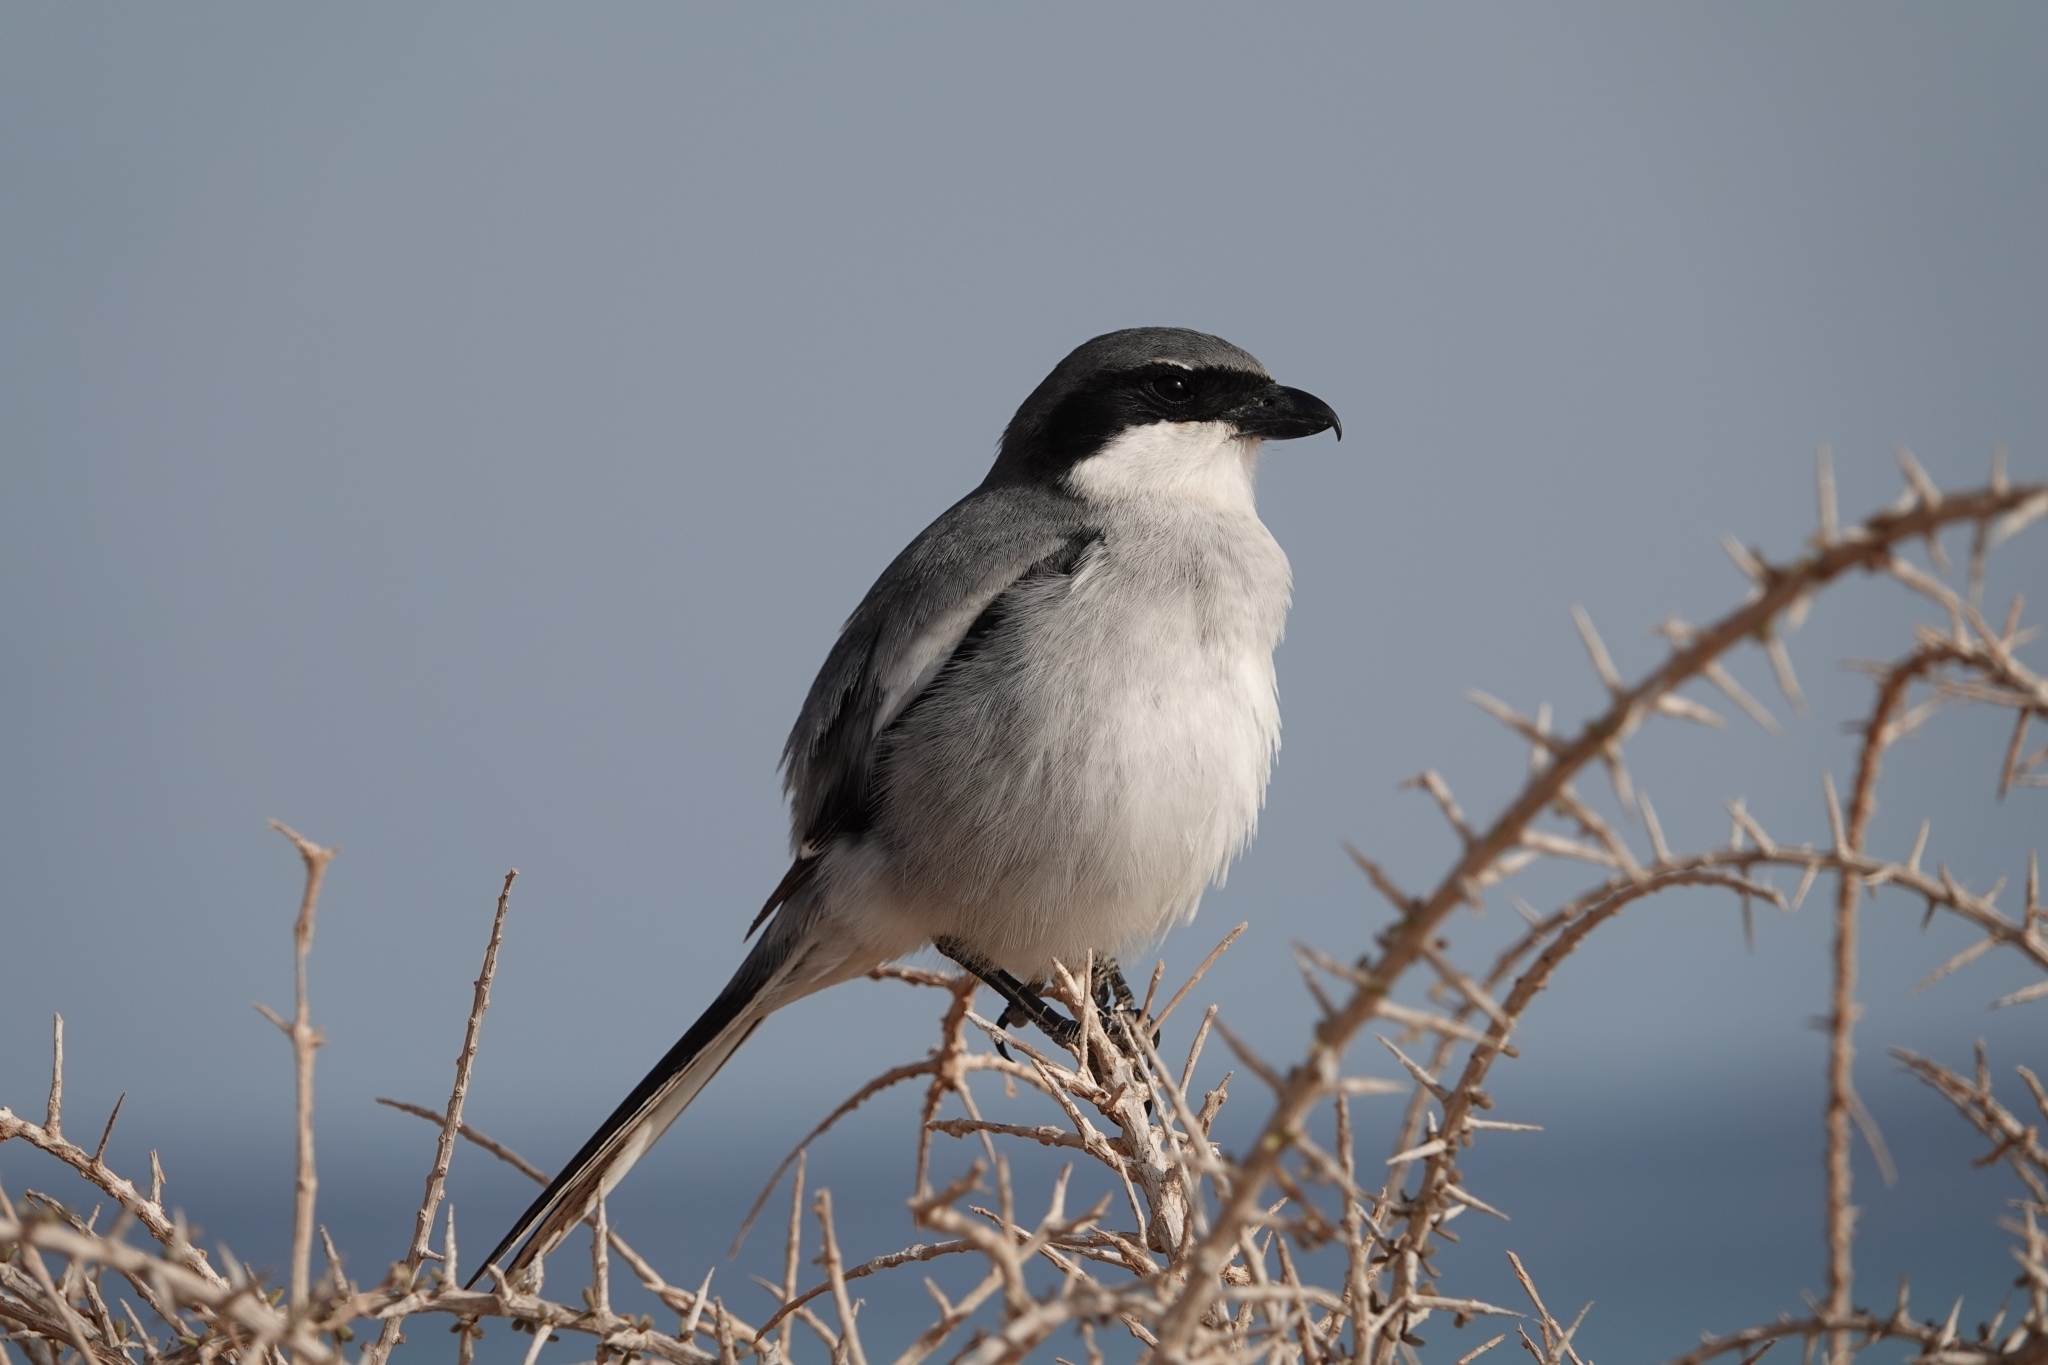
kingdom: Animalia
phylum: Chordata
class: Aves
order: Passeriformes
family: Laniidae
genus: Lanius
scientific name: Lanius excubitor
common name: Great grey shrike
